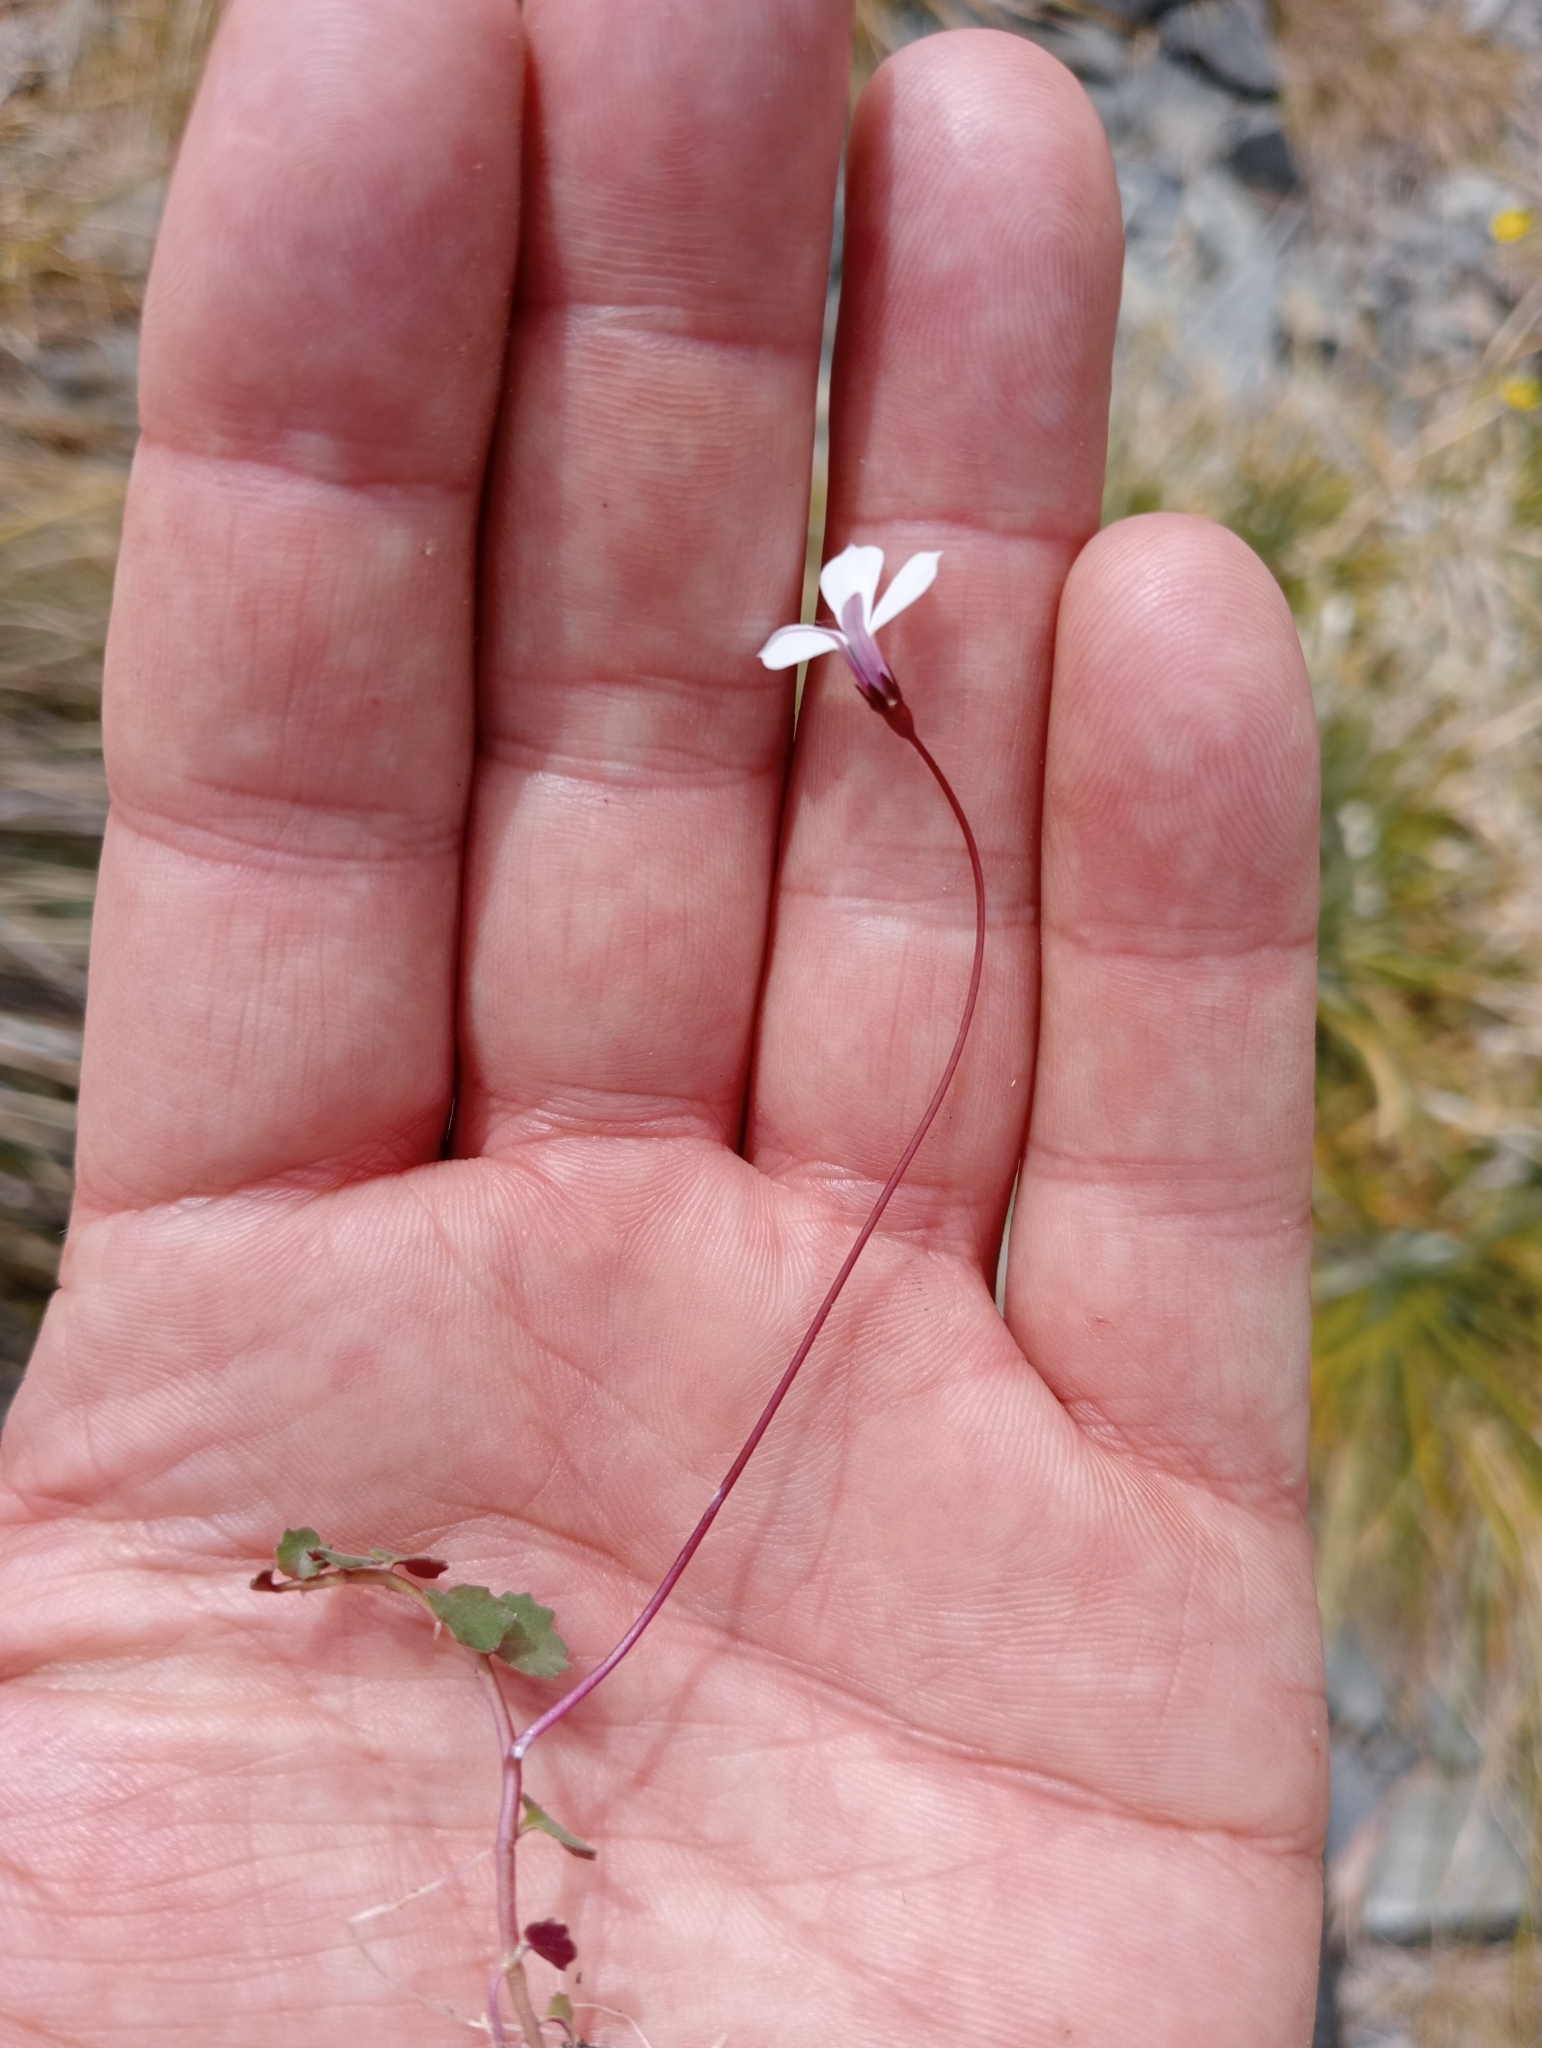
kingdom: Plantae
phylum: Tracheophyta
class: Magnoliopsida
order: Asterales
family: Campanulaceae
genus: Lobelia
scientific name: Lobelia angulata
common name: Lawn lobelia
